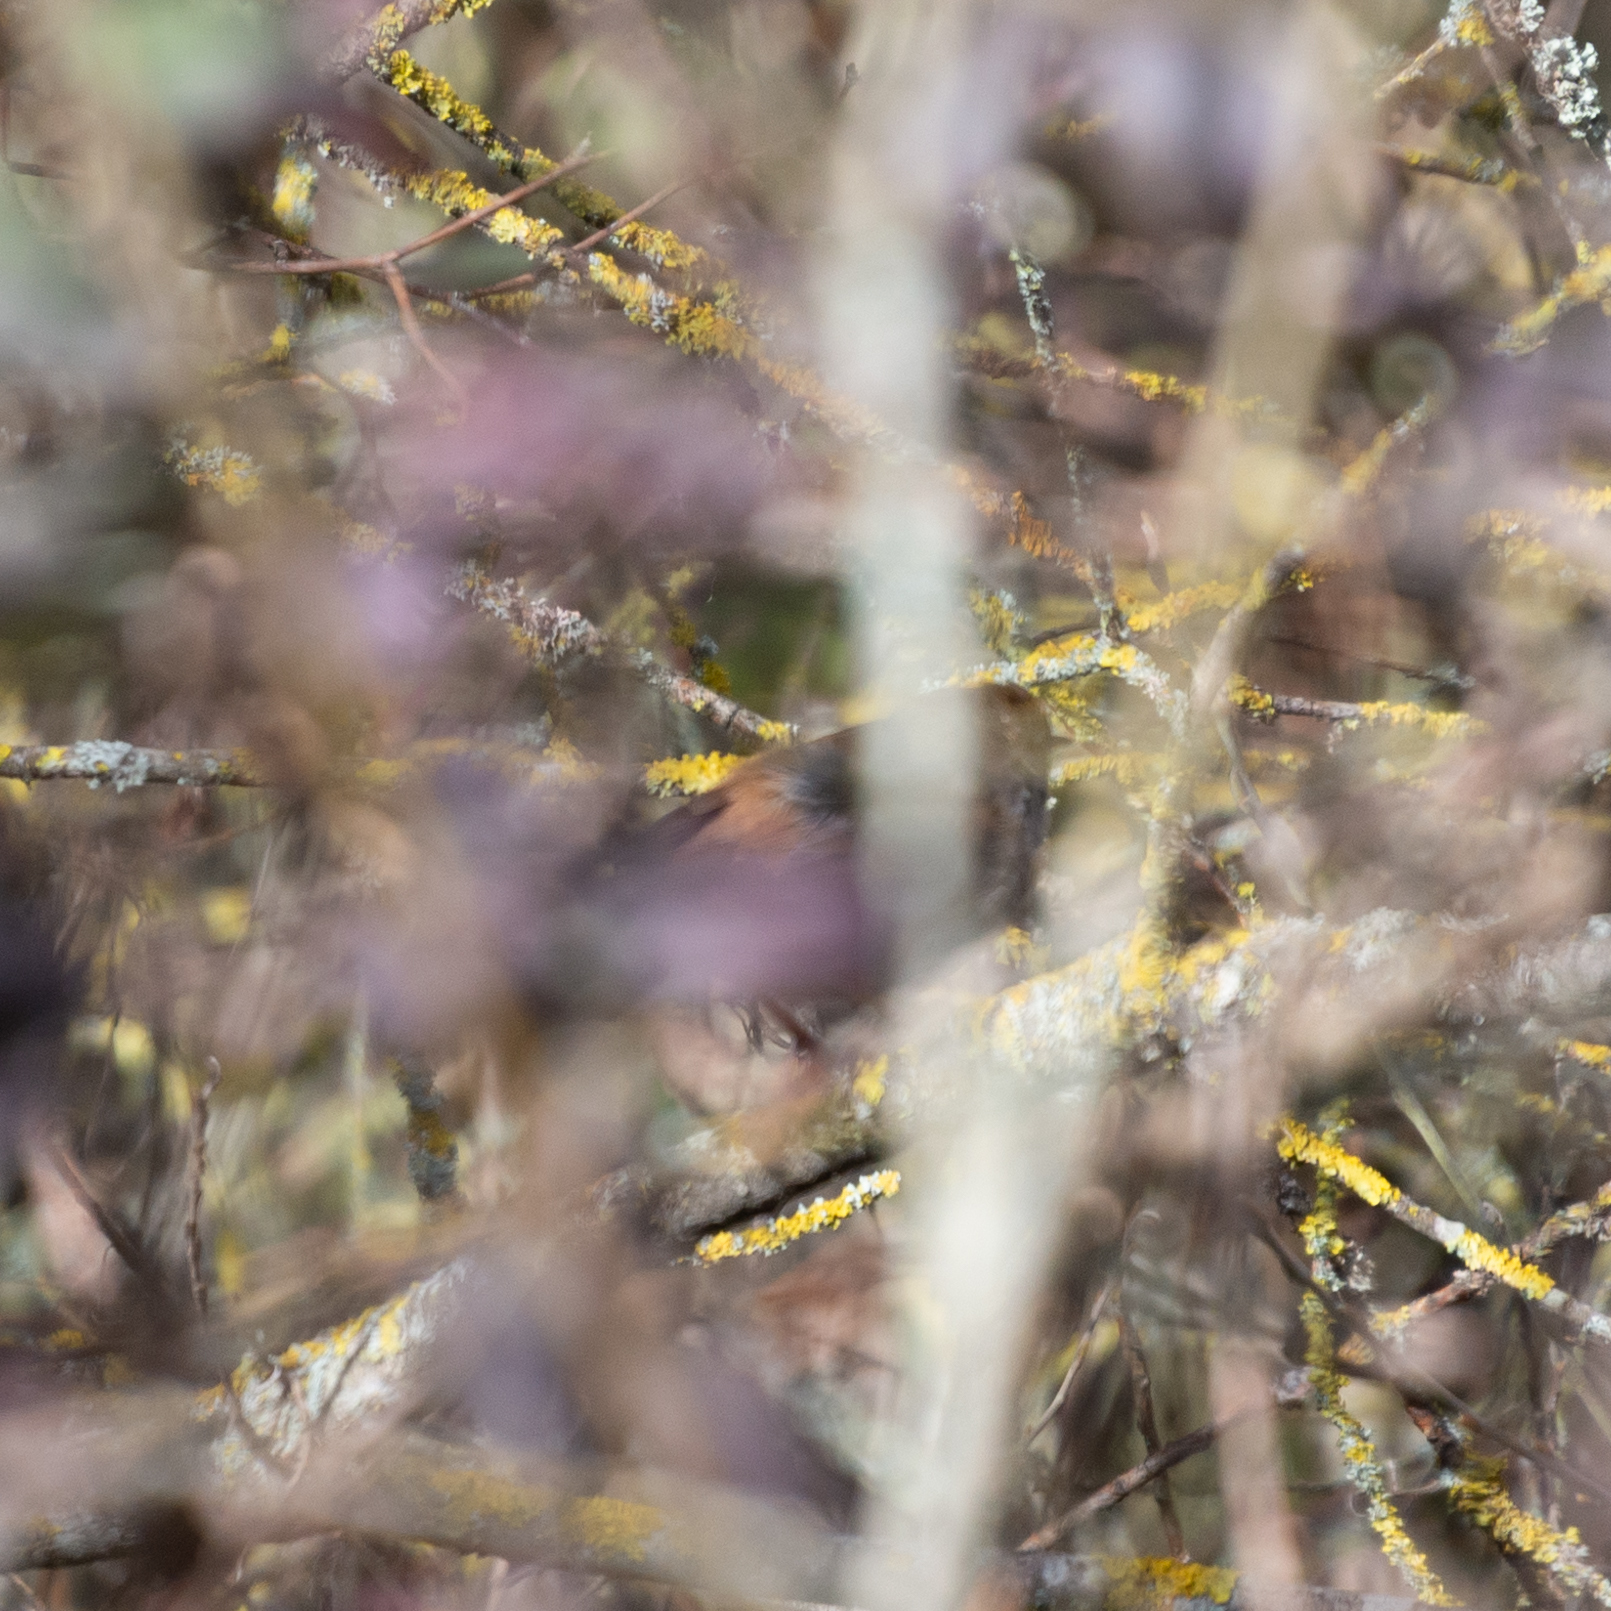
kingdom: Animalia
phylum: Chordata
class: Aves
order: Passeriformes
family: Cettiidae
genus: Cettia
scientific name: Cettia cetti
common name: Cetti's warbler
